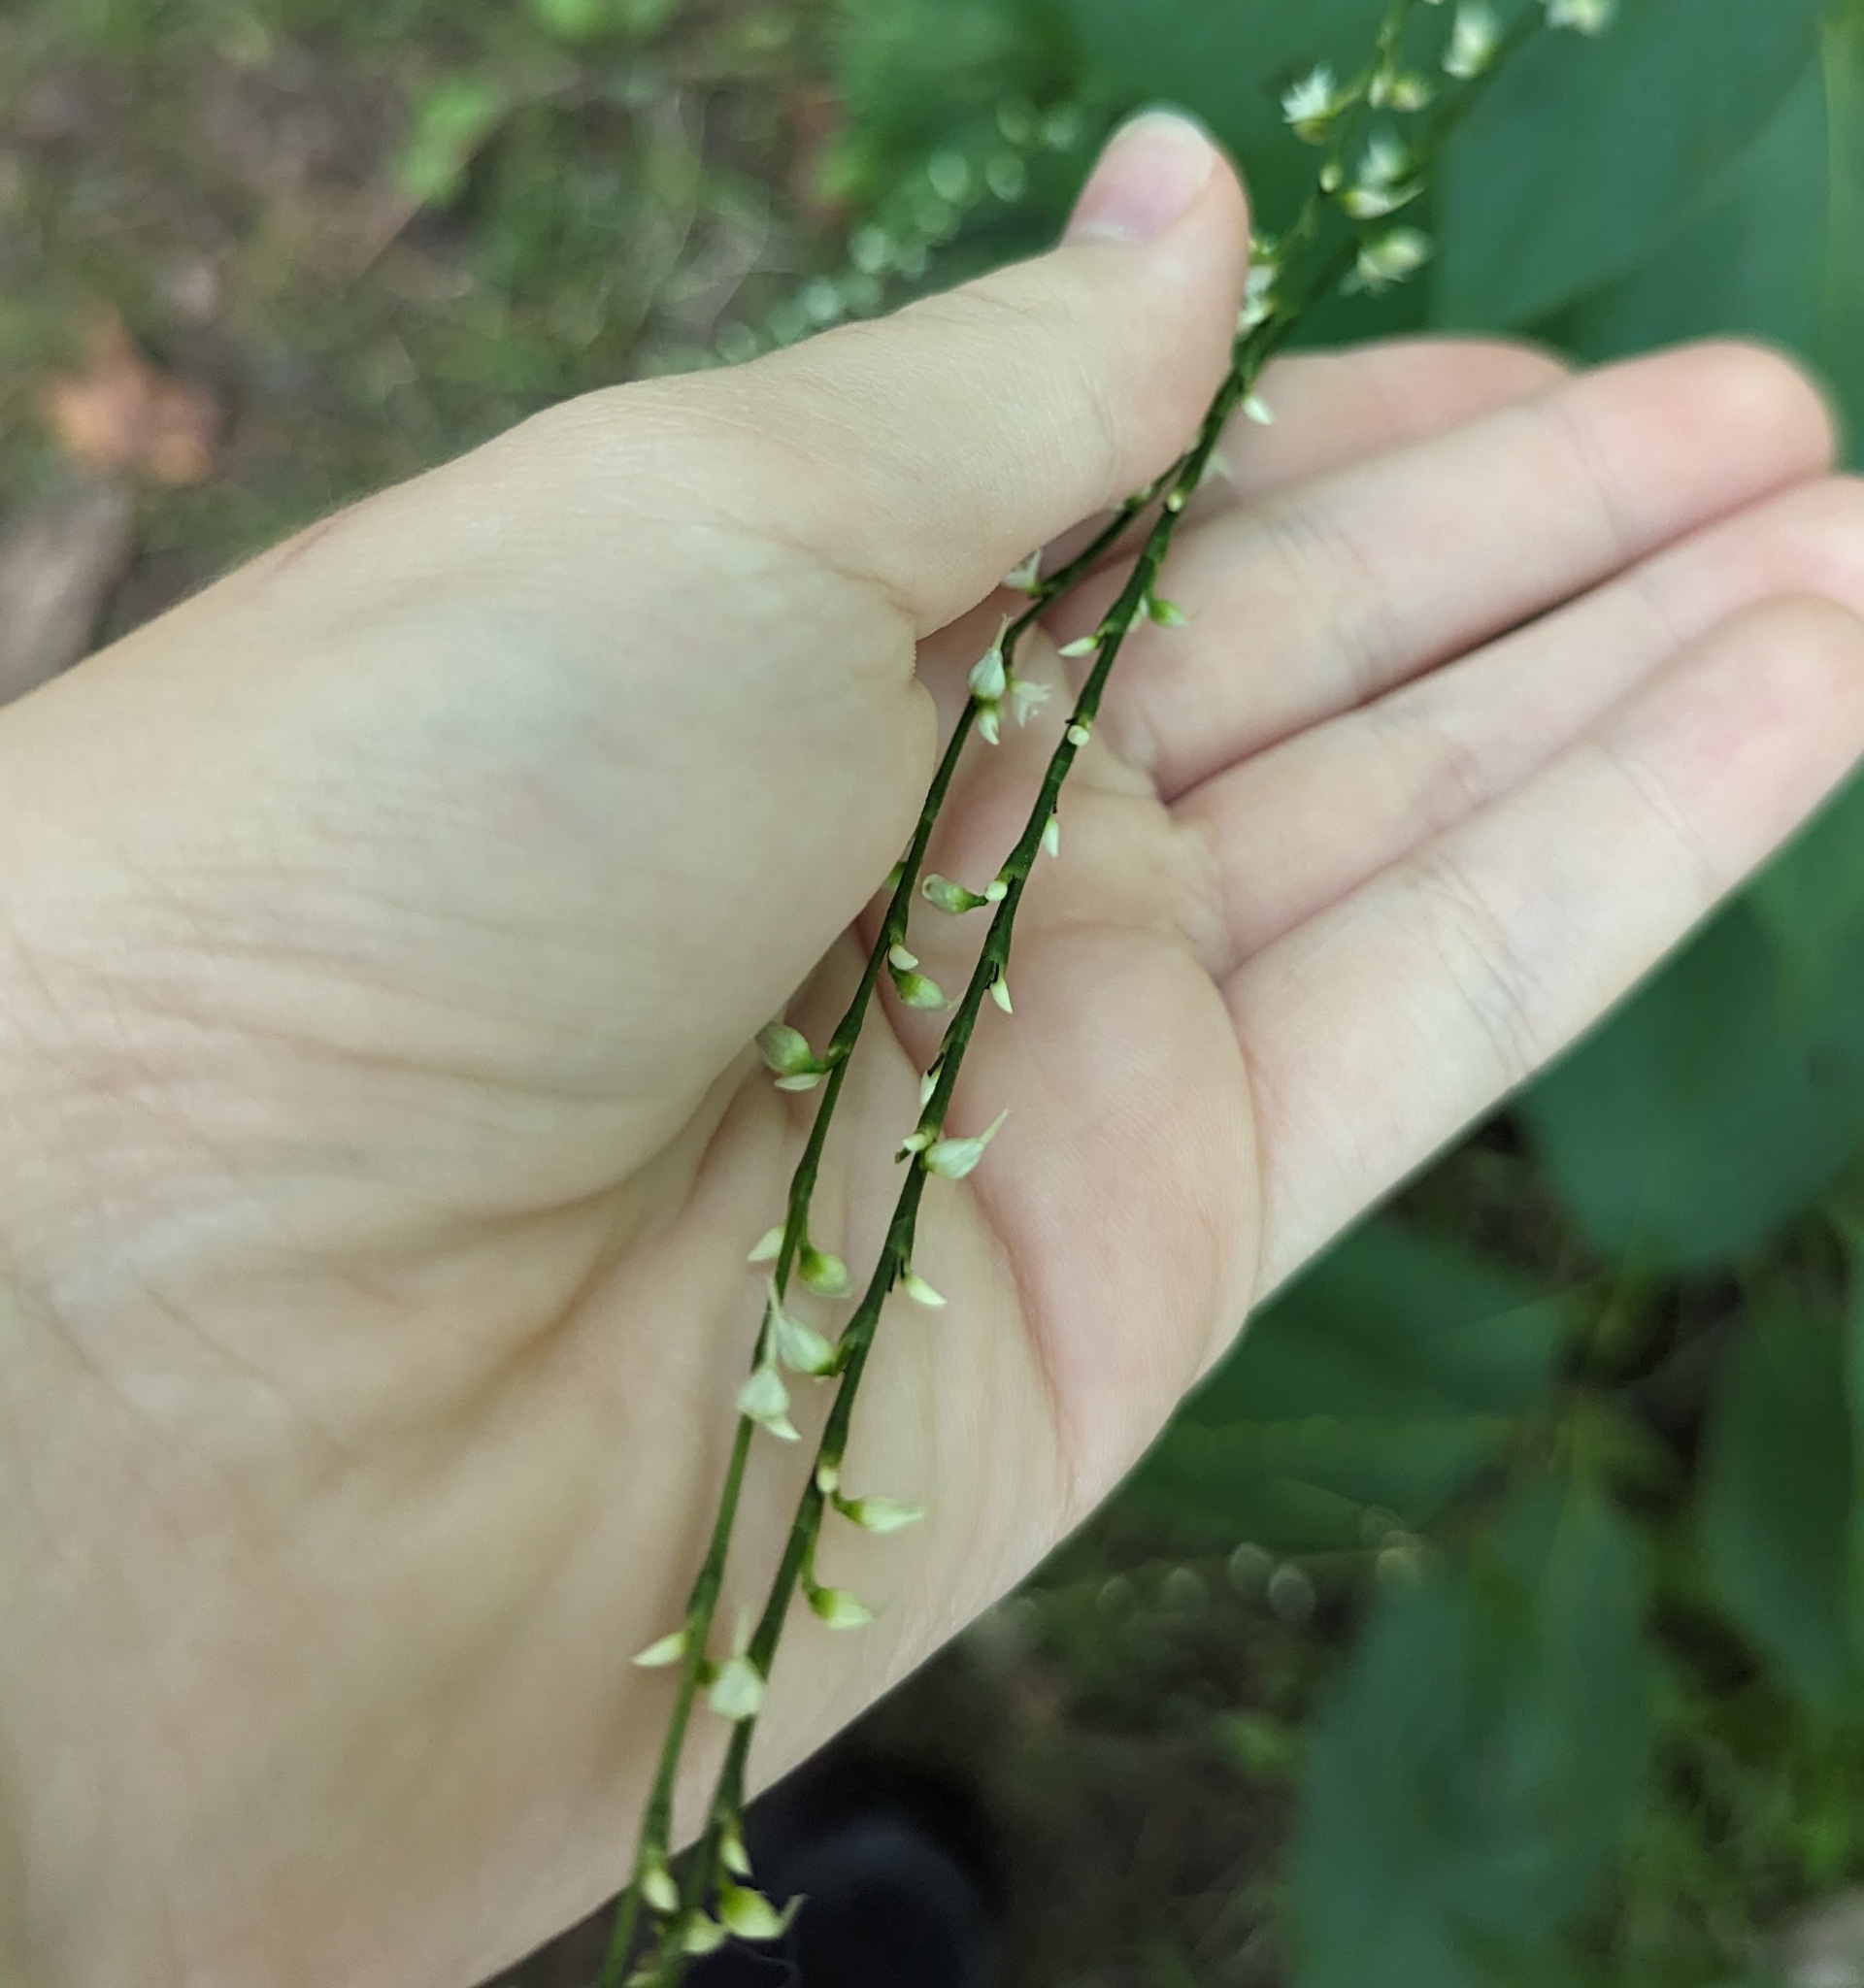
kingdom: Plantae
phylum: Tracheophyta
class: Magnoliopsida
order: Caryophyllales
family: Polygonaceae
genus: Persicaria
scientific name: Persicaria virginiana
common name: Jumpseed
